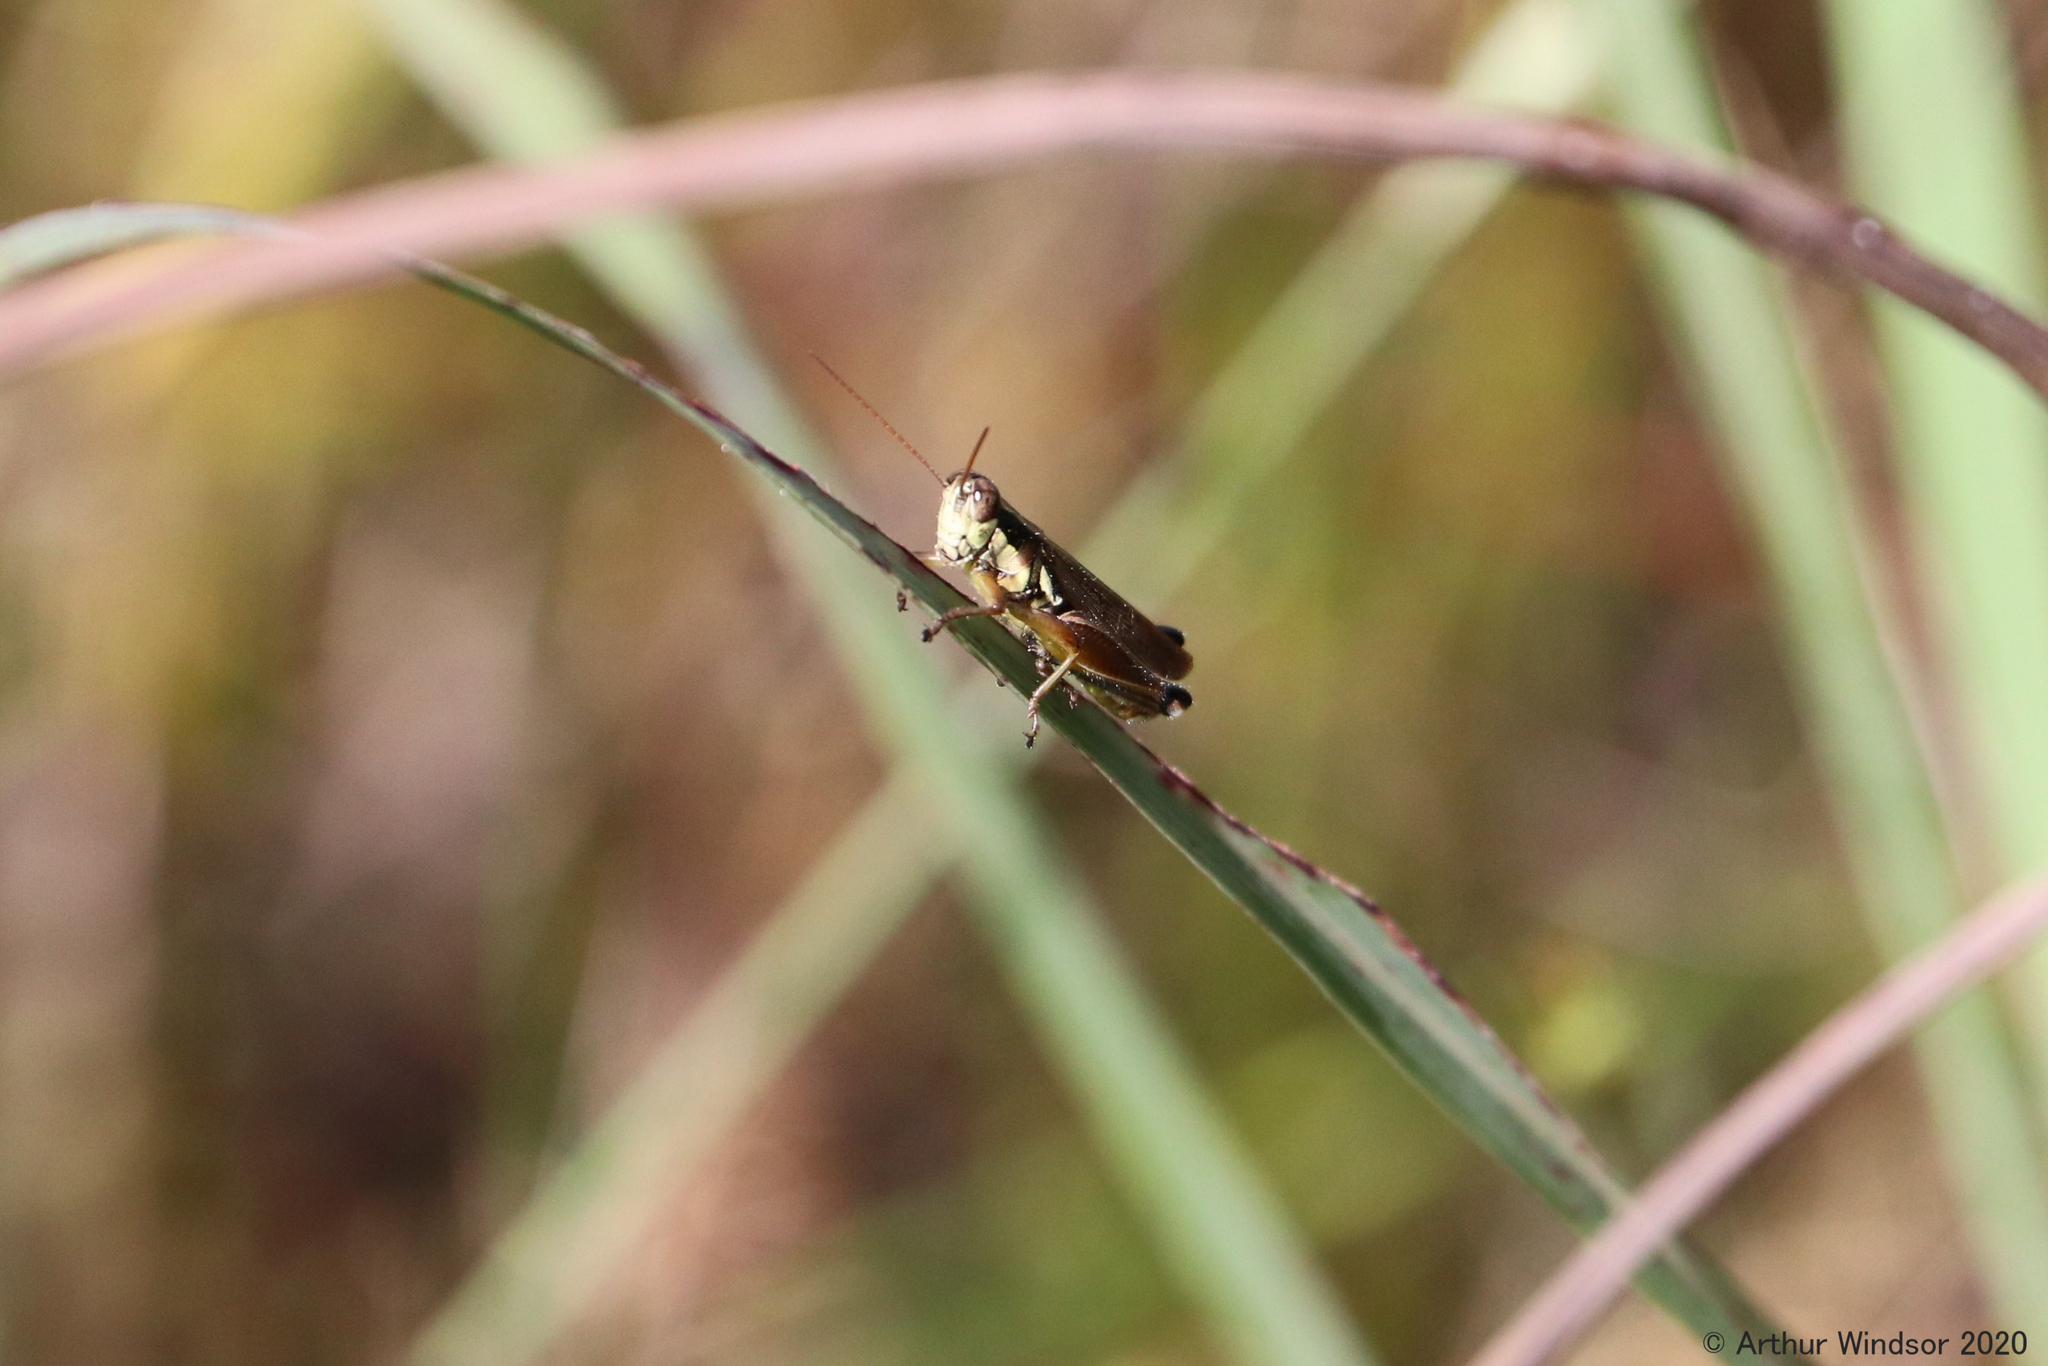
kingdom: Animalia
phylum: Arthropoda
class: Insecta
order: Orthoptera
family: Acrididae
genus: Paroxya
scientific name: Paroxya atlantica
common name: Atlantic grasshopper
